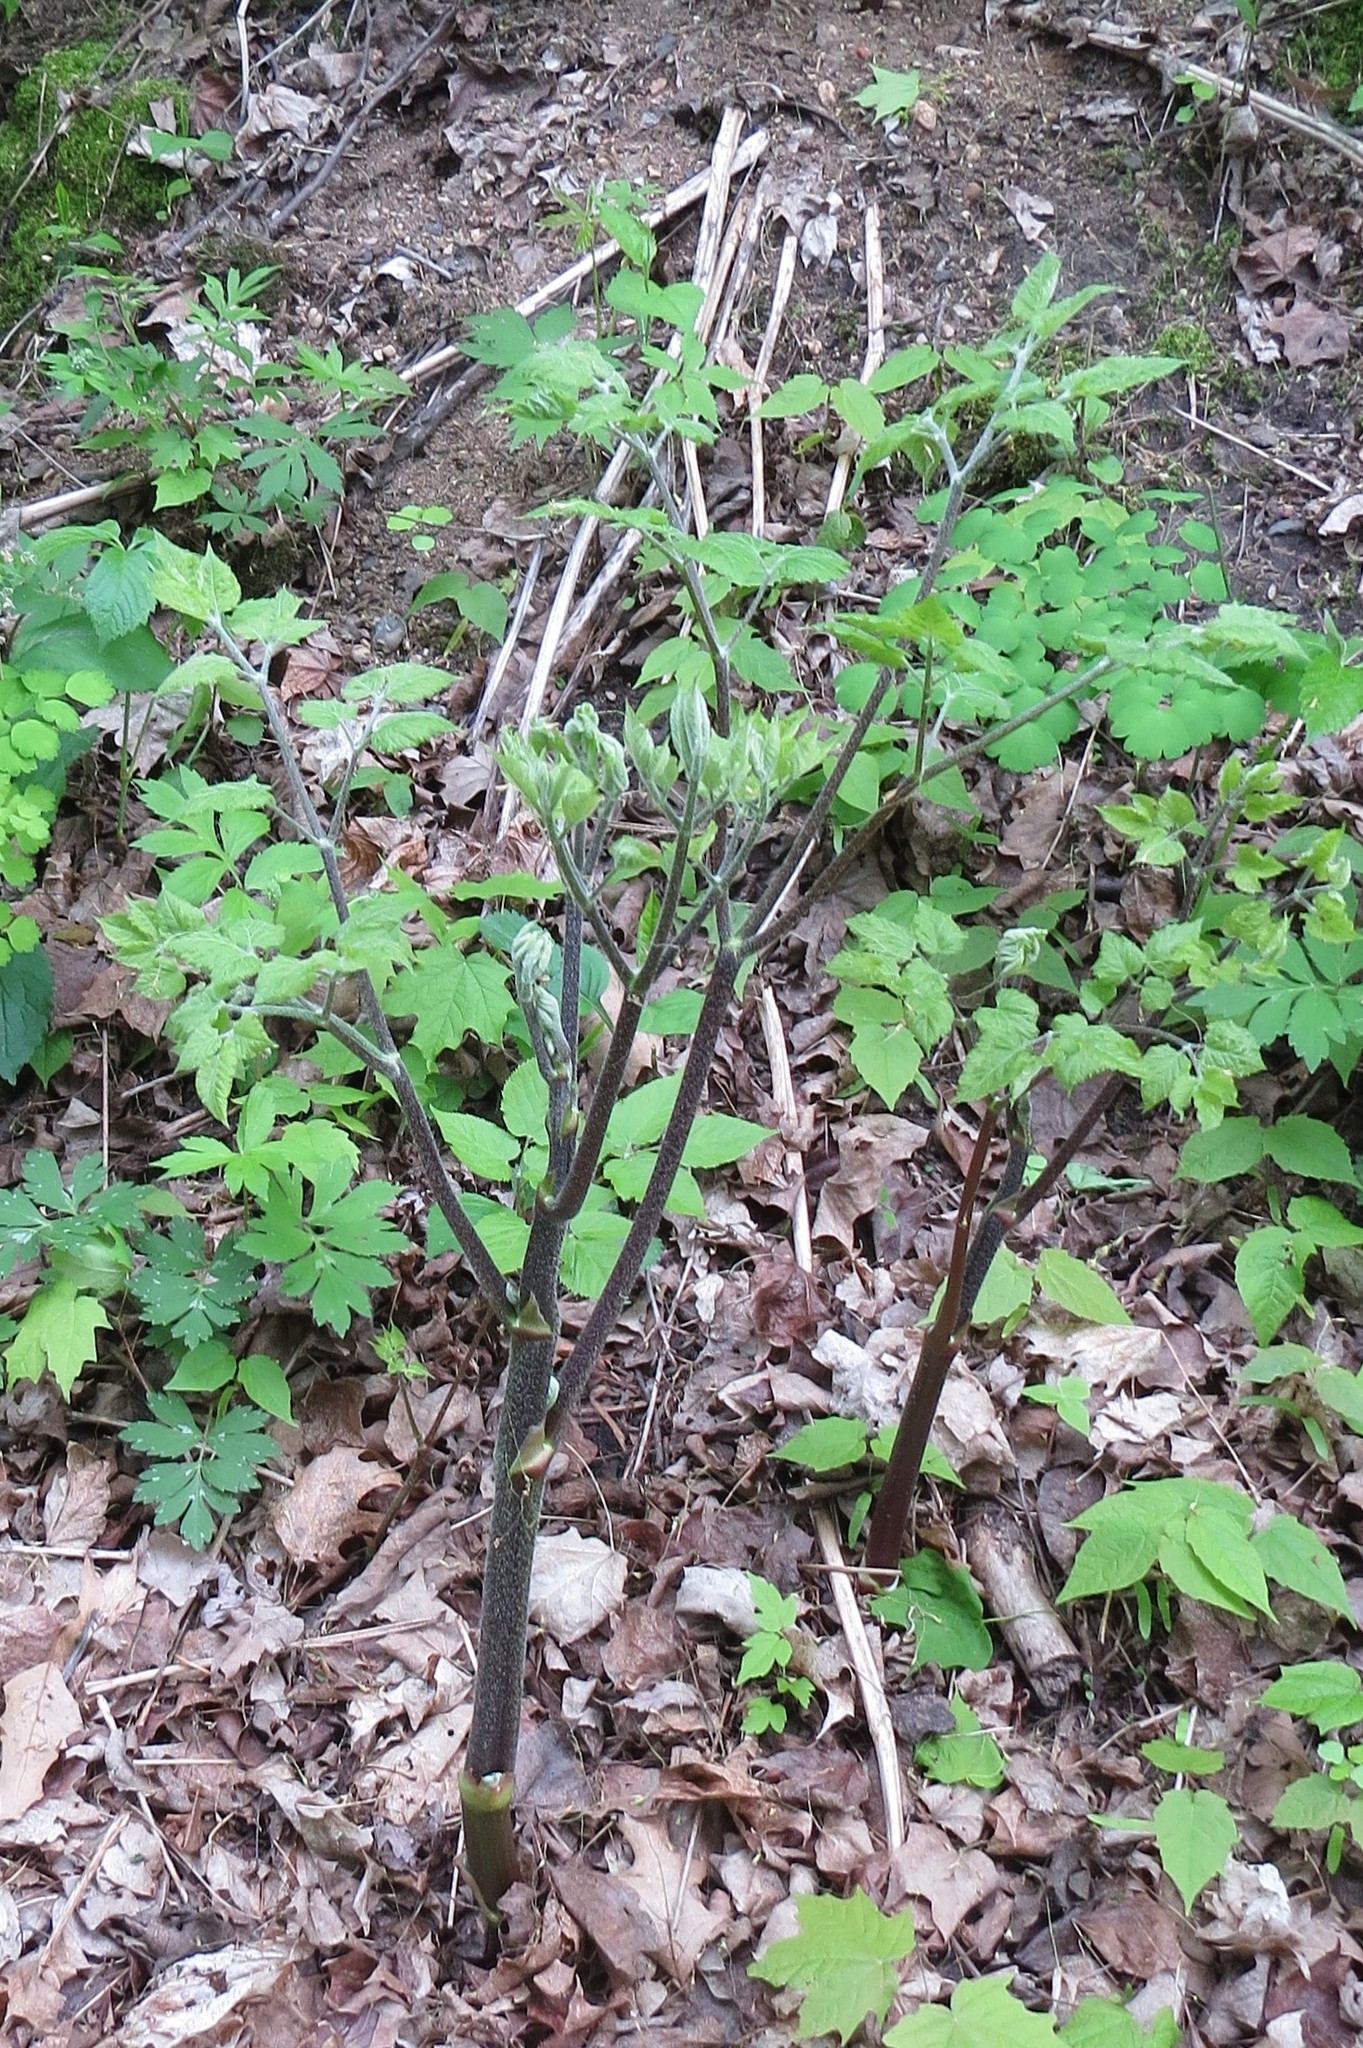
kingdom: Plantae
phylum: Tracheophyta
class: Magnoliopsida
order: Apiales
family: Araliaceae
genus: Aralia
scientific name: Aralia racemosa
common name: American-spikenard
